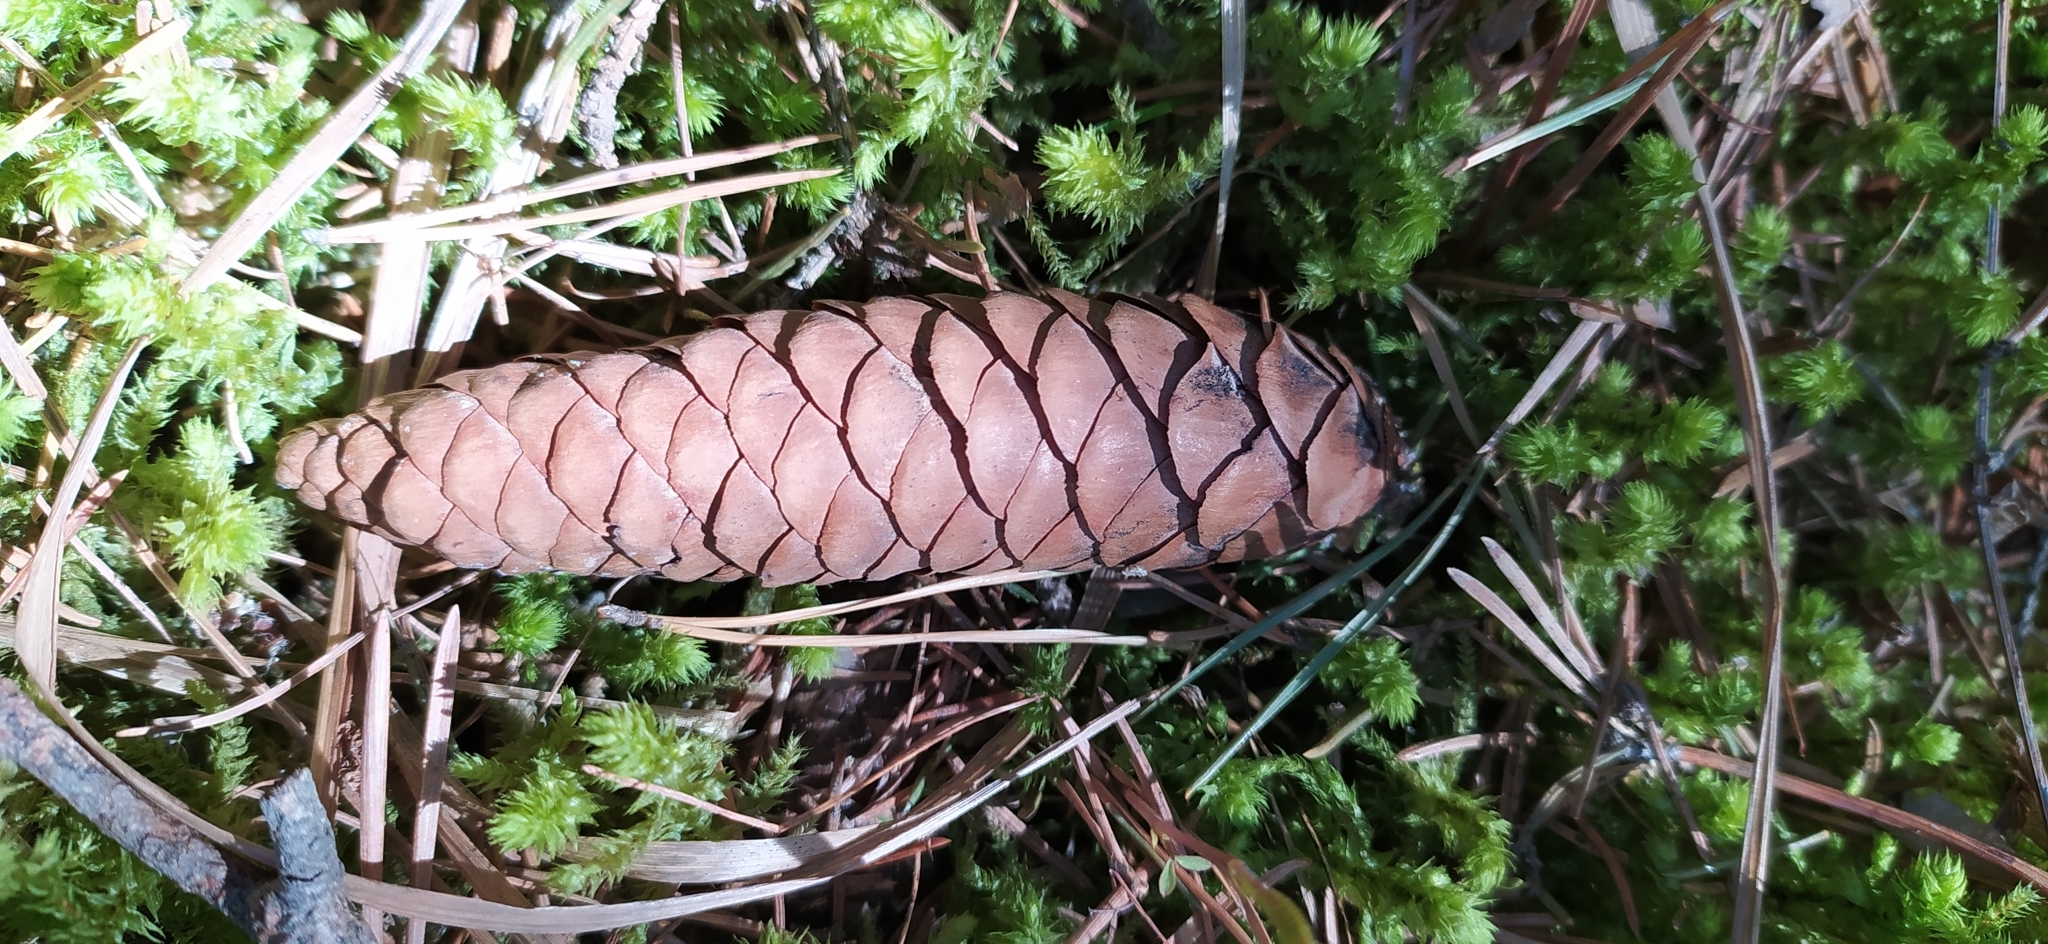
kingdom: Plantae
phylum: Tracheophyta
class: Pinopsida
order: Pinales
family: Pinaceae
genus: Picea
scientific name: Picea obovata
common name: Siberian spruce
